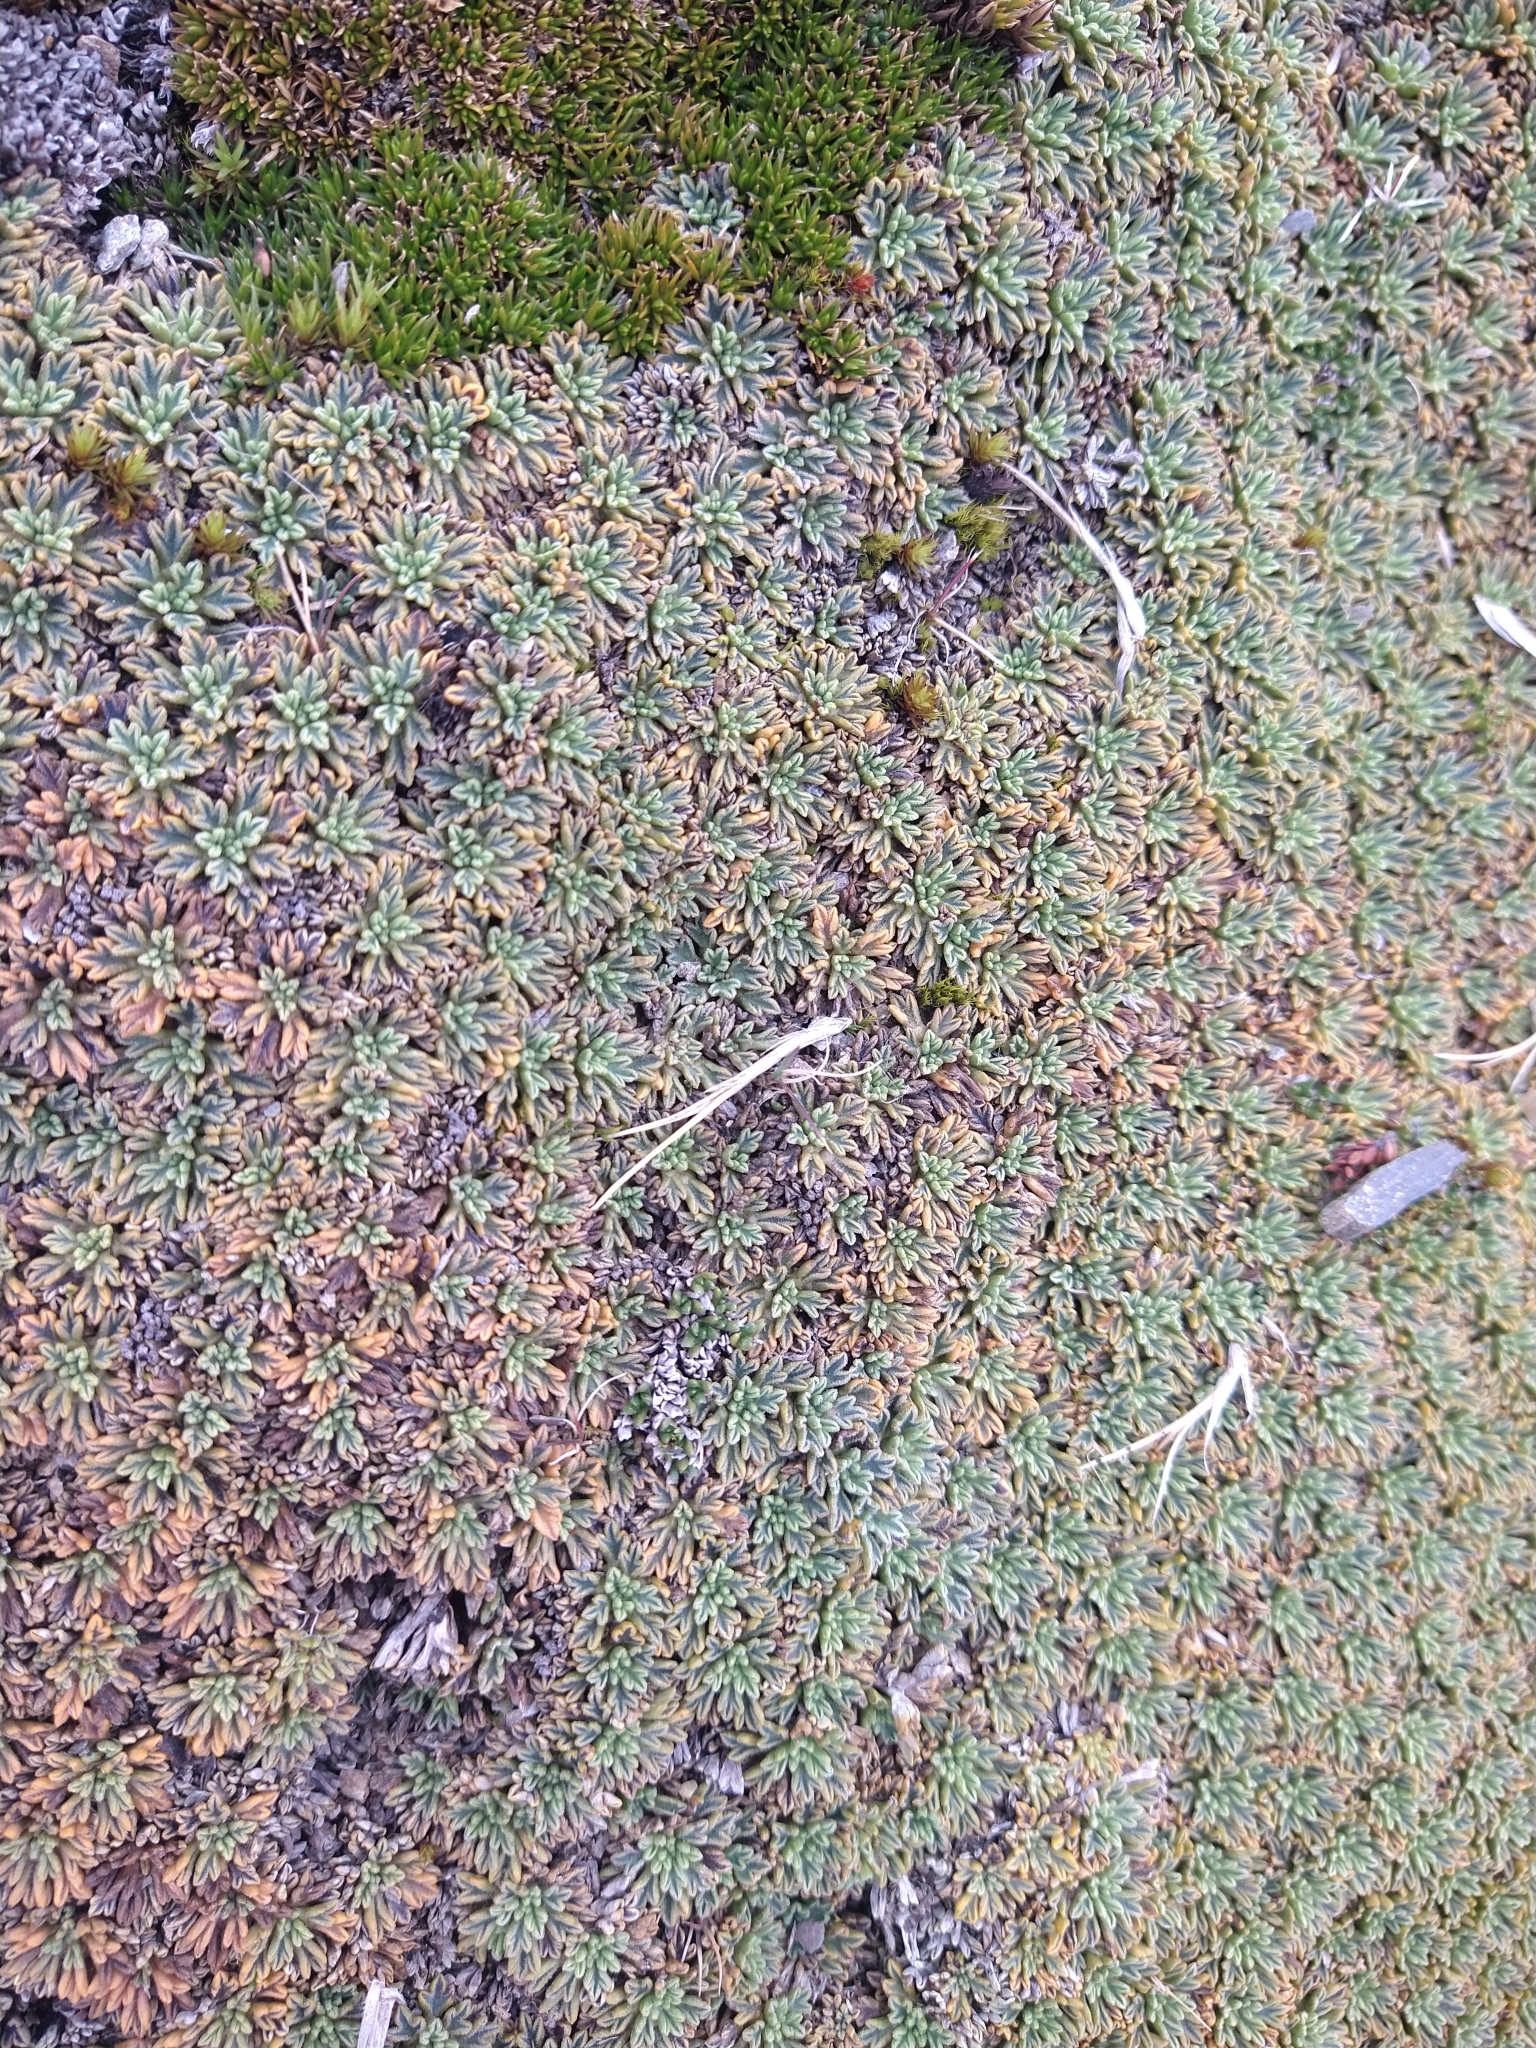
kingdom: Plantae
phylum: Tracheophyta
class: Magnoliopsida
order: Apiales
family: Apiaceae
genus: Bolax
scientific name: Bolax gummifera
